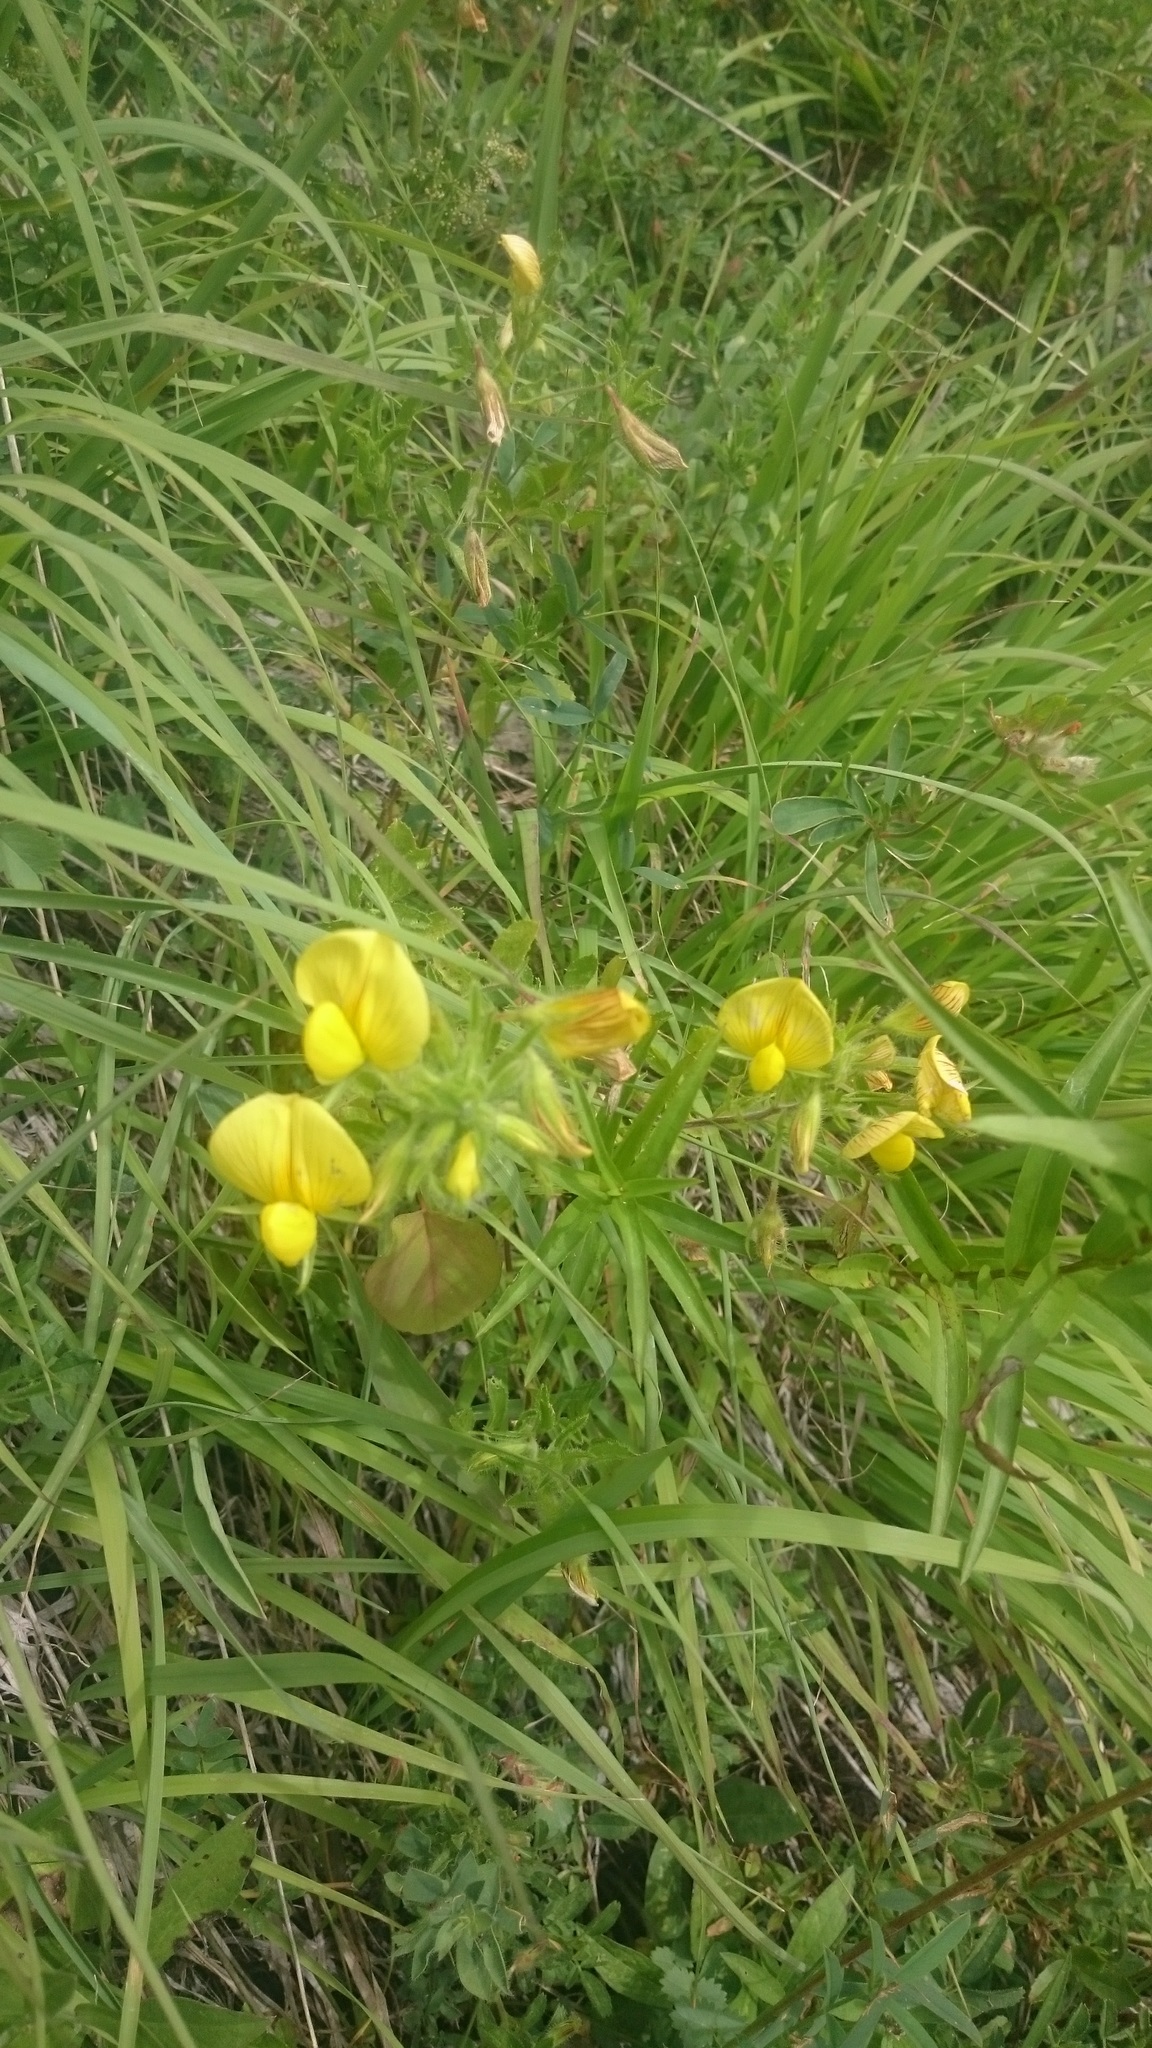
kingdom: Plantae
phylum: Tracheophyta
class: Magnoliopsida
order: Fabales
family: Fabaceae
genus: Ononis
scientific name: Ononis natrix
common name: Yellow restharrow
